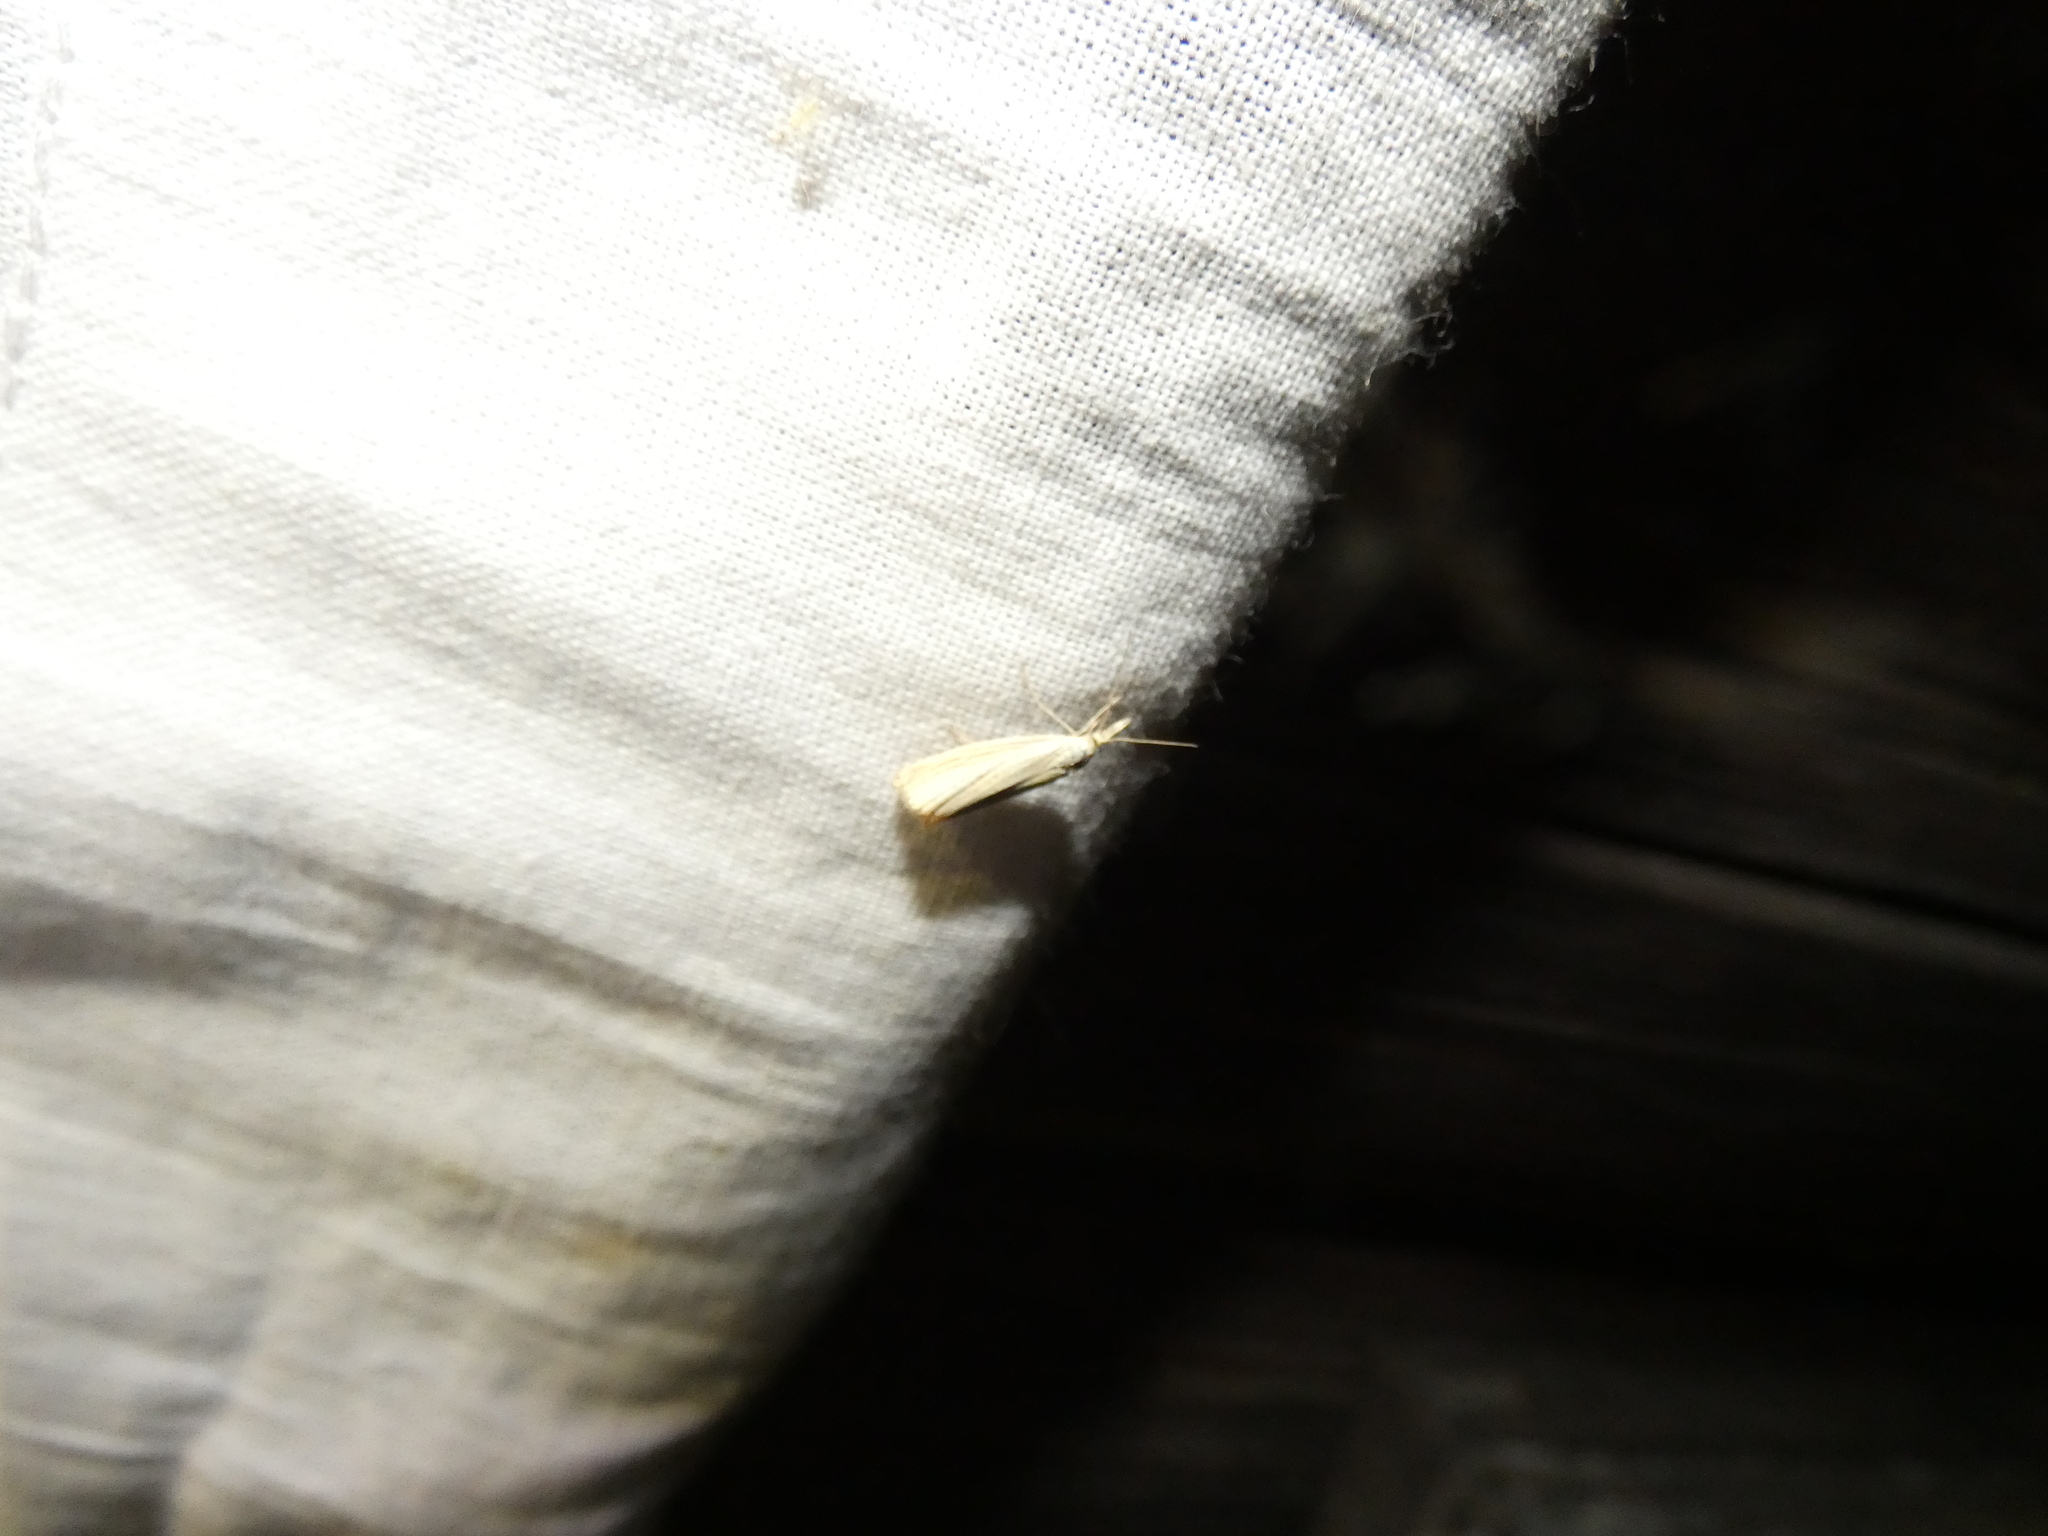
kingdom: Animalia
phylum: Arthropoda
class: Insecta
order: Lepidoptera
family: Crambidae
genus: Agriphila
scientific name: Agriphila straminella
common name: Straw grass-veneer
